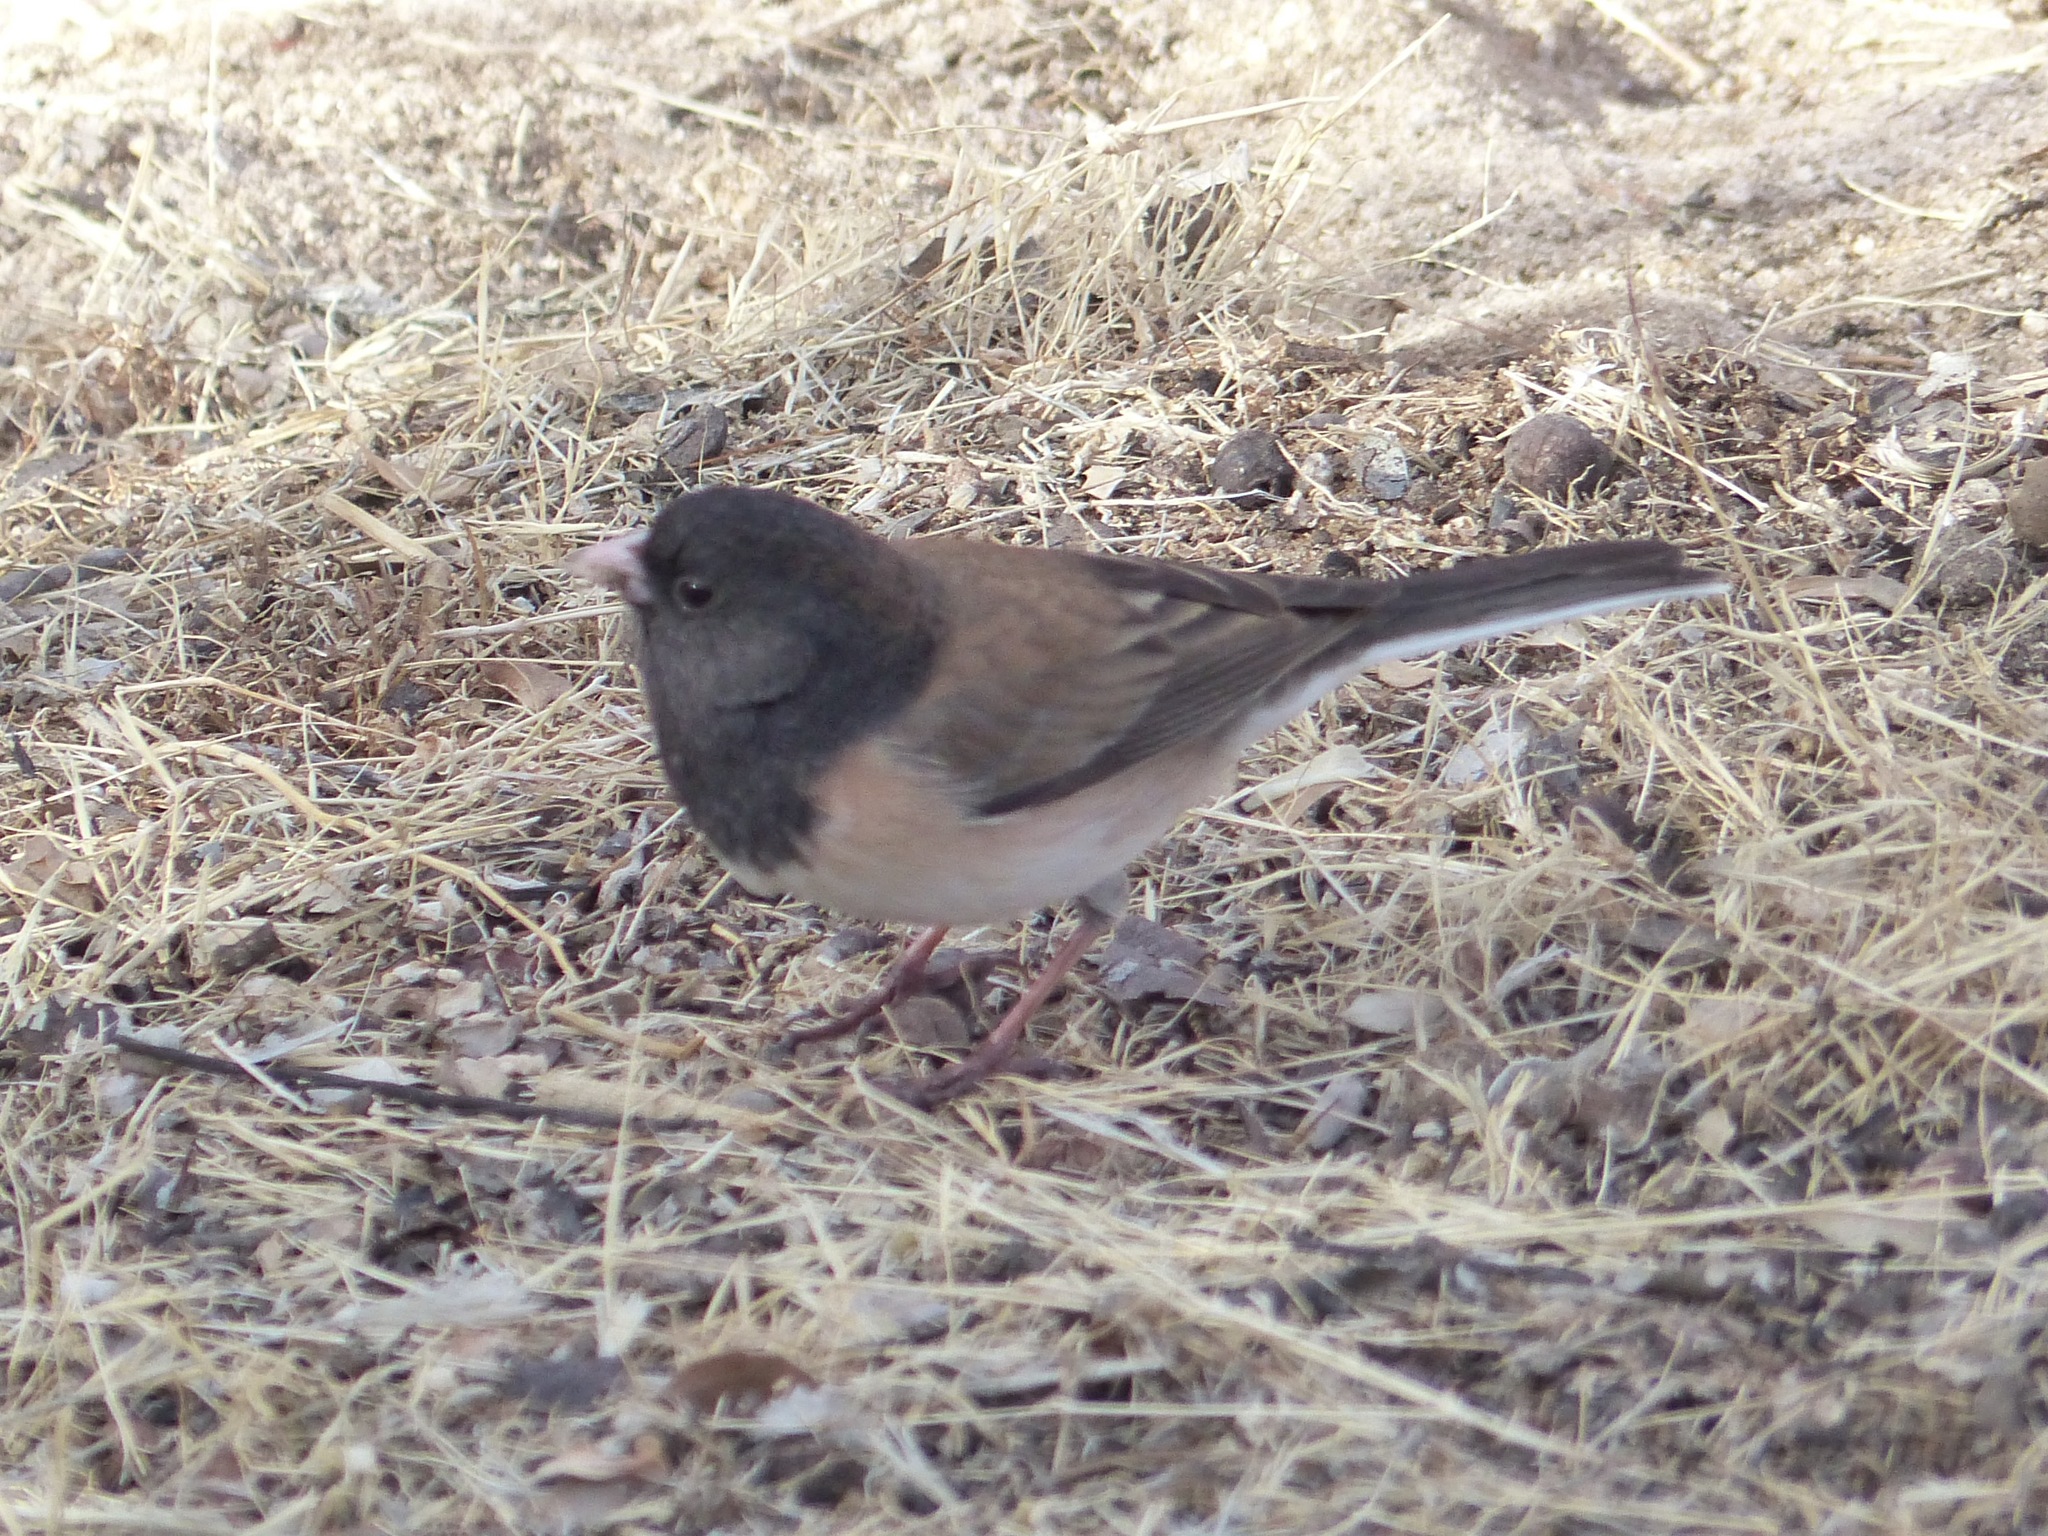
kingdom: Animalia
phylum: Chordata
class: Aves
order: Passeriformes
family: Passerellidae
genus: Junco
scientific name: Junco hyemalis
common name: Dark-eyed junco
